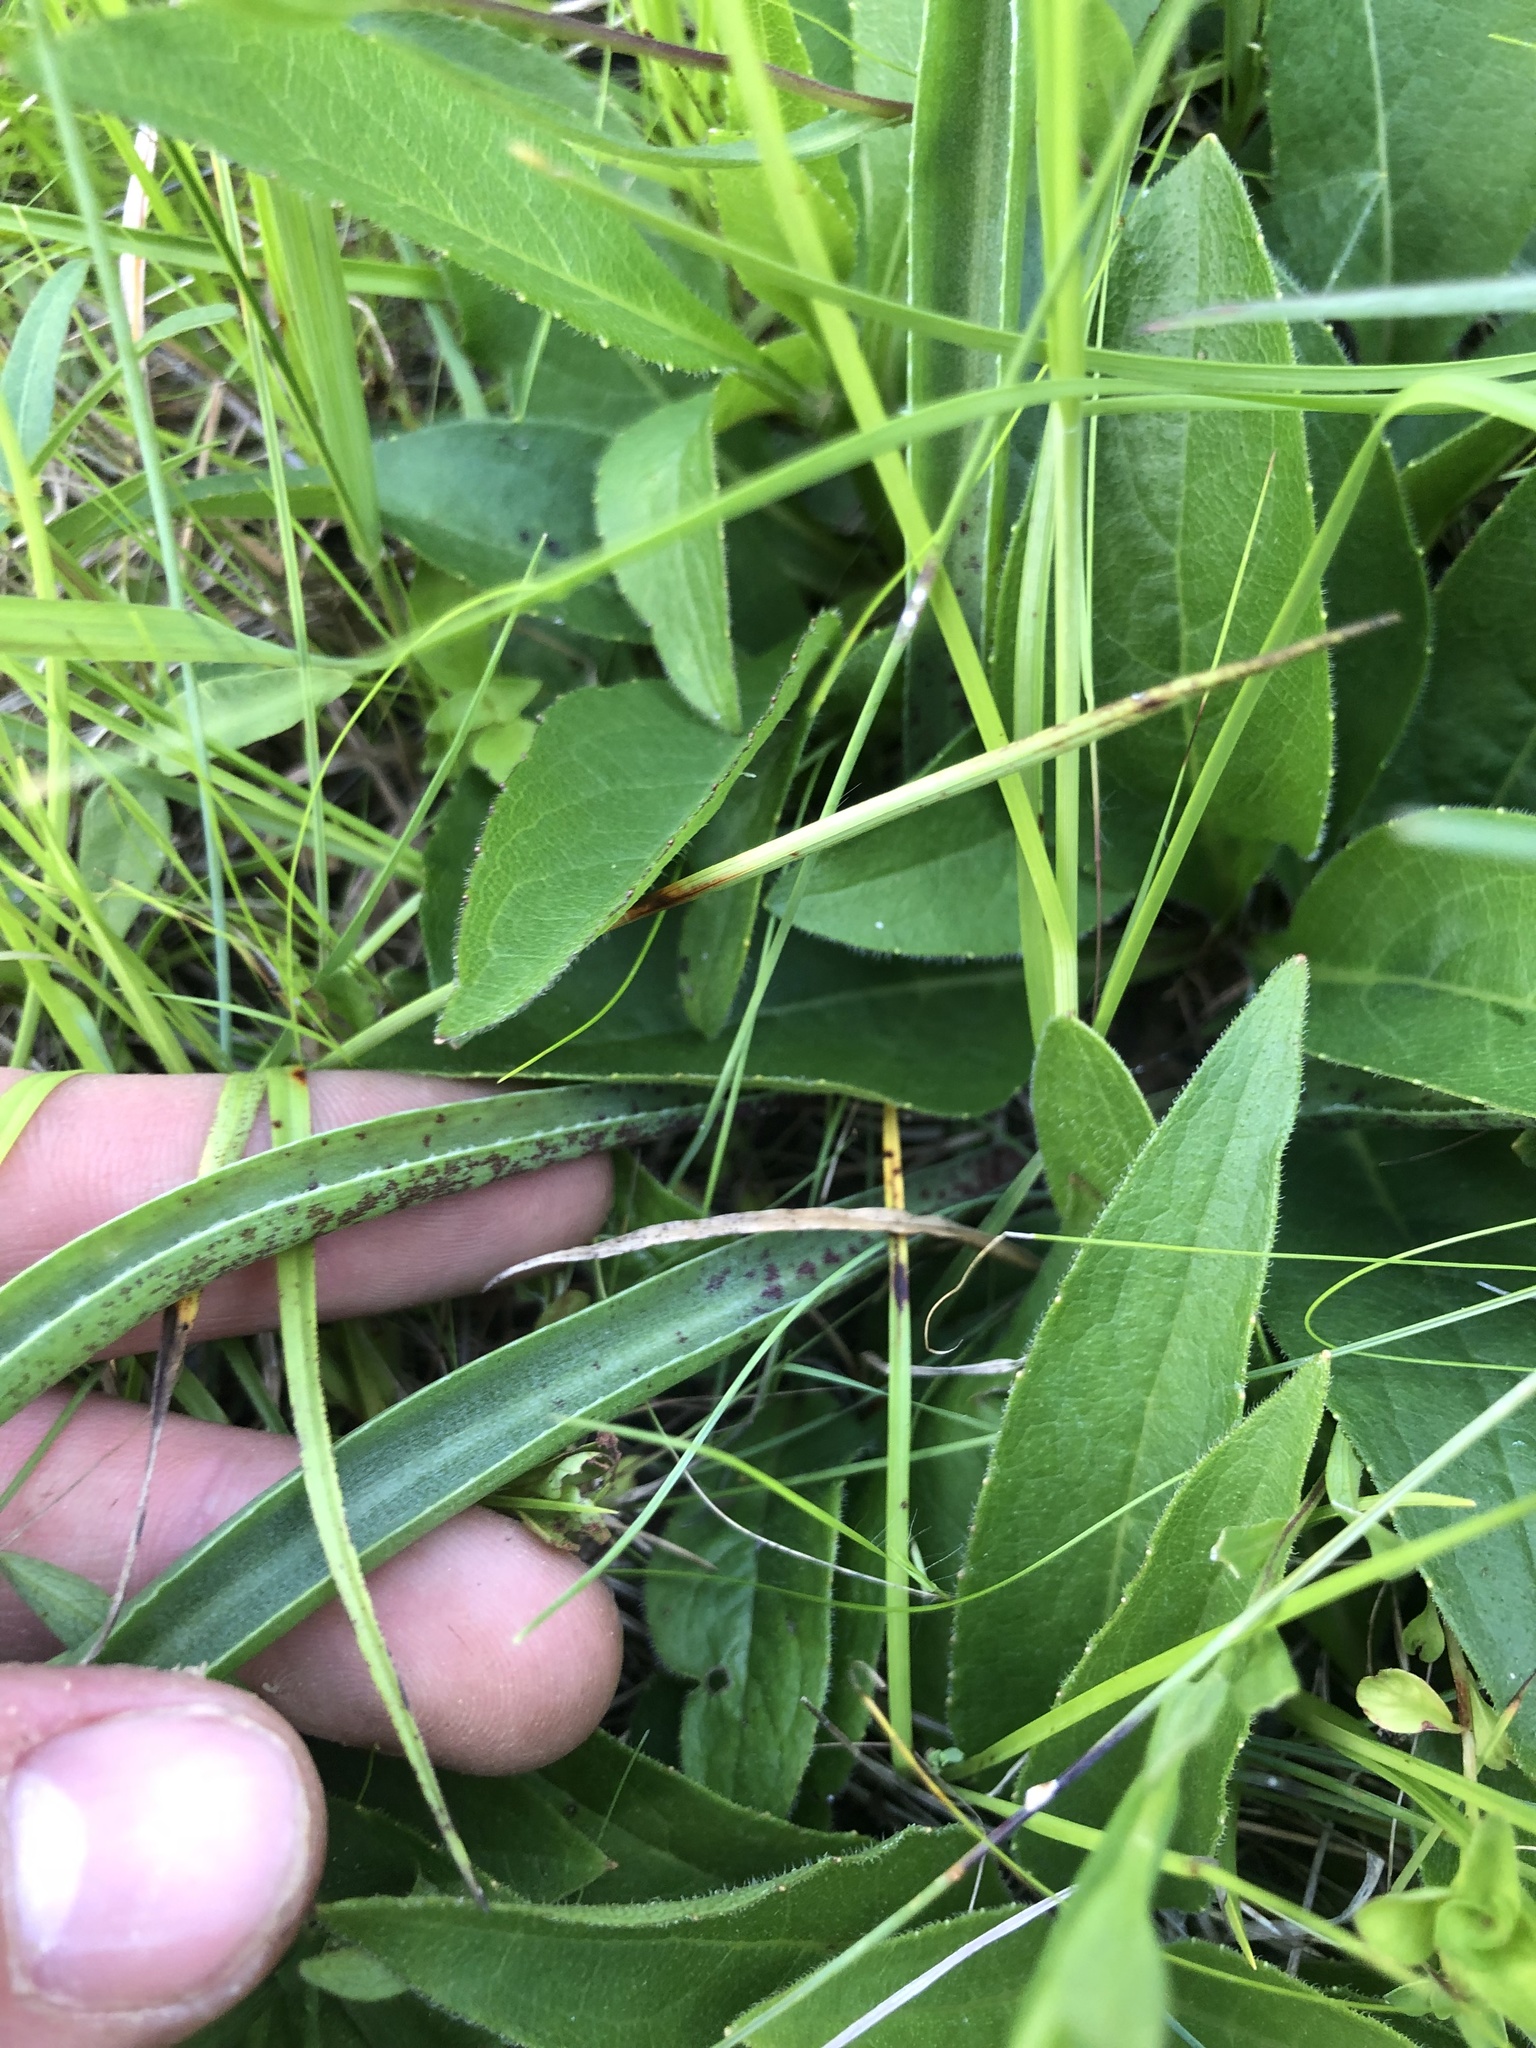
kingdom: Plantae
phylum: Tracheophyta
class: Liliopsida
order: Asparagales
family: Asparagaceae
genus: Agave
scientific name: Agave virginica
